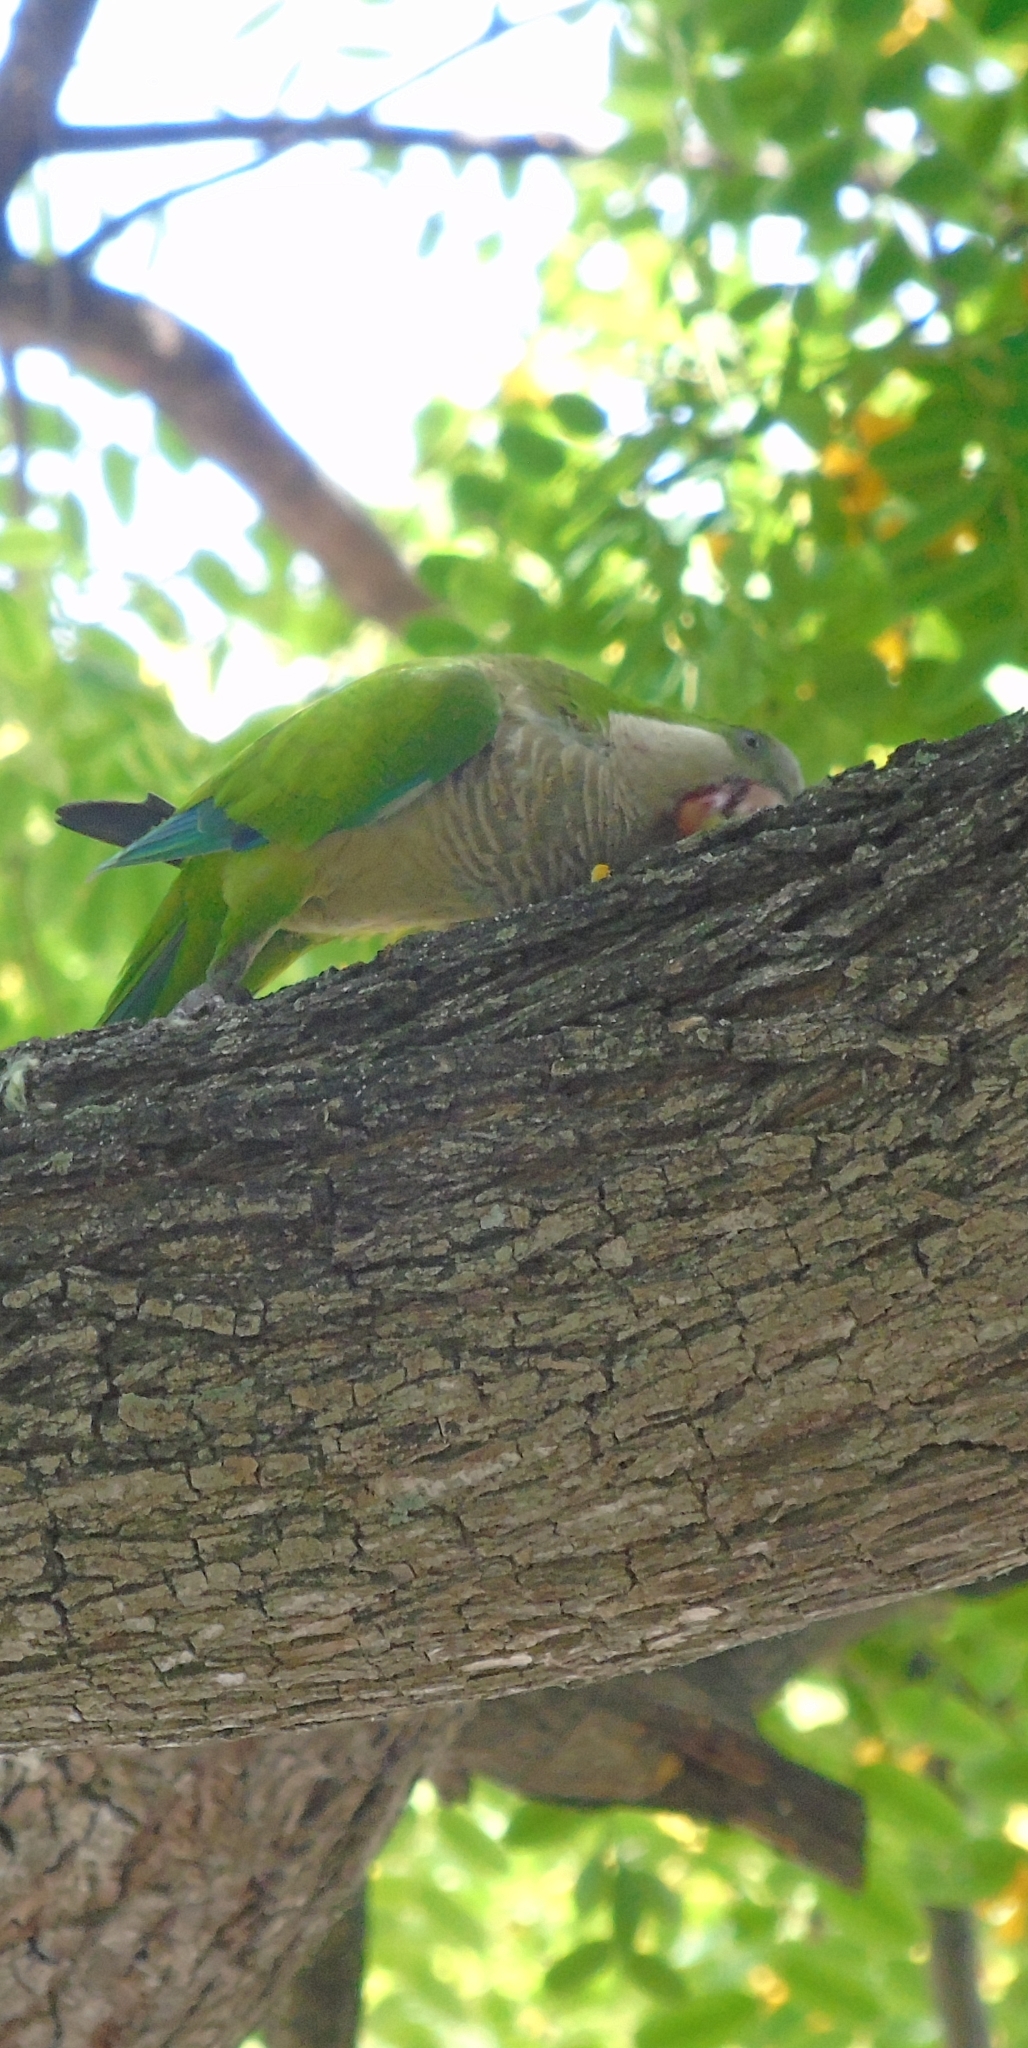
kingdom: Animalia
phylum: Chordata
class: Aves
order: Psittaciformes
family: Psittacidae
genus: Myiopsitta
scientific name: Myiopsitta monachus
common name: Monk parakeet
